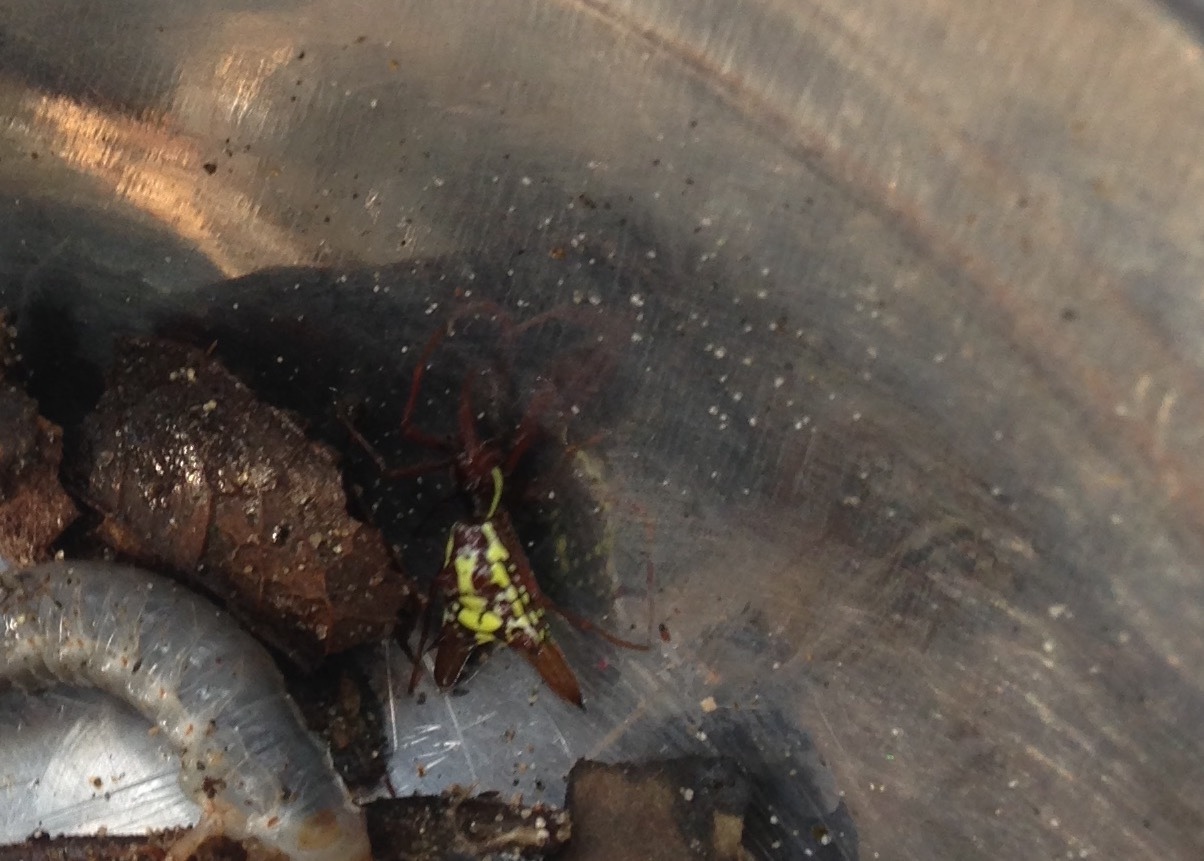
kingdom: Animalia
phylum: Arthropoda
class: Arachnida
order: Araneae
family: Araneidae
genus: Micrathena
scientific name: Micrathena sexspinosa
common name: Orb weavers
